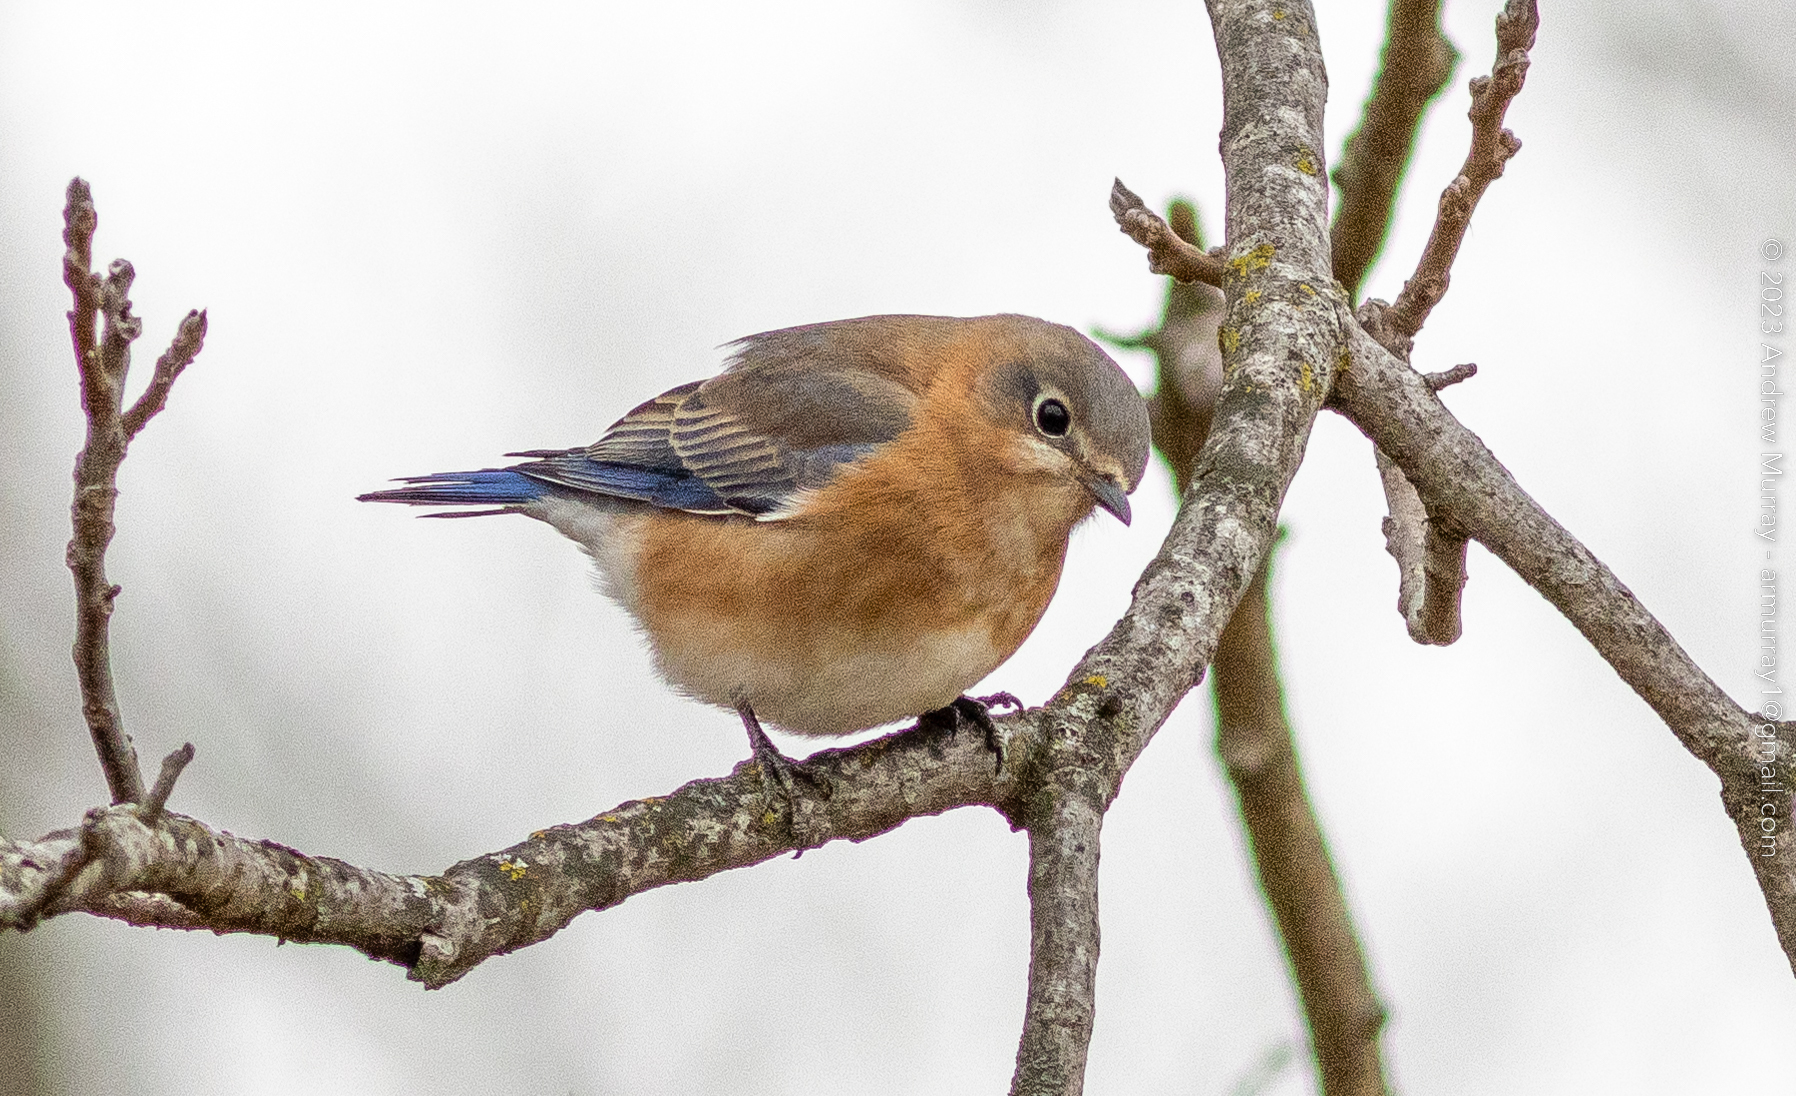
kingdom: Animalia
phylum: Chordata
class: Aves
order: Passeriformes
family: Turdidae
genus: Sialia
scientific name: Sialia sialis
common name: Eastern bluebird
